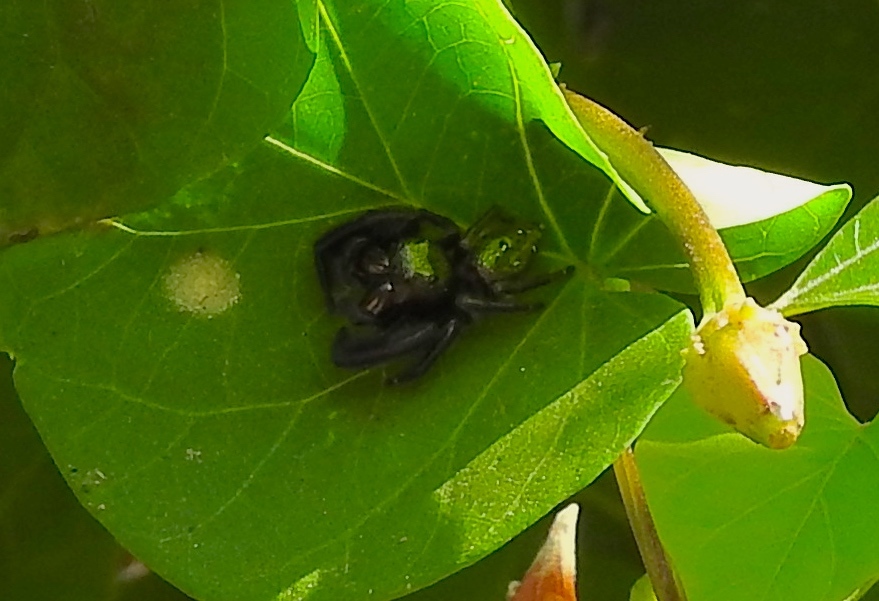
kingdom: Animalia
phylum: Arthropoda
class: Arachnida
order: Araneae
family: Salticidae
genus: Paraphidippus
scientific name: Paraphidippus fartilis
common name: Jumping spiders
